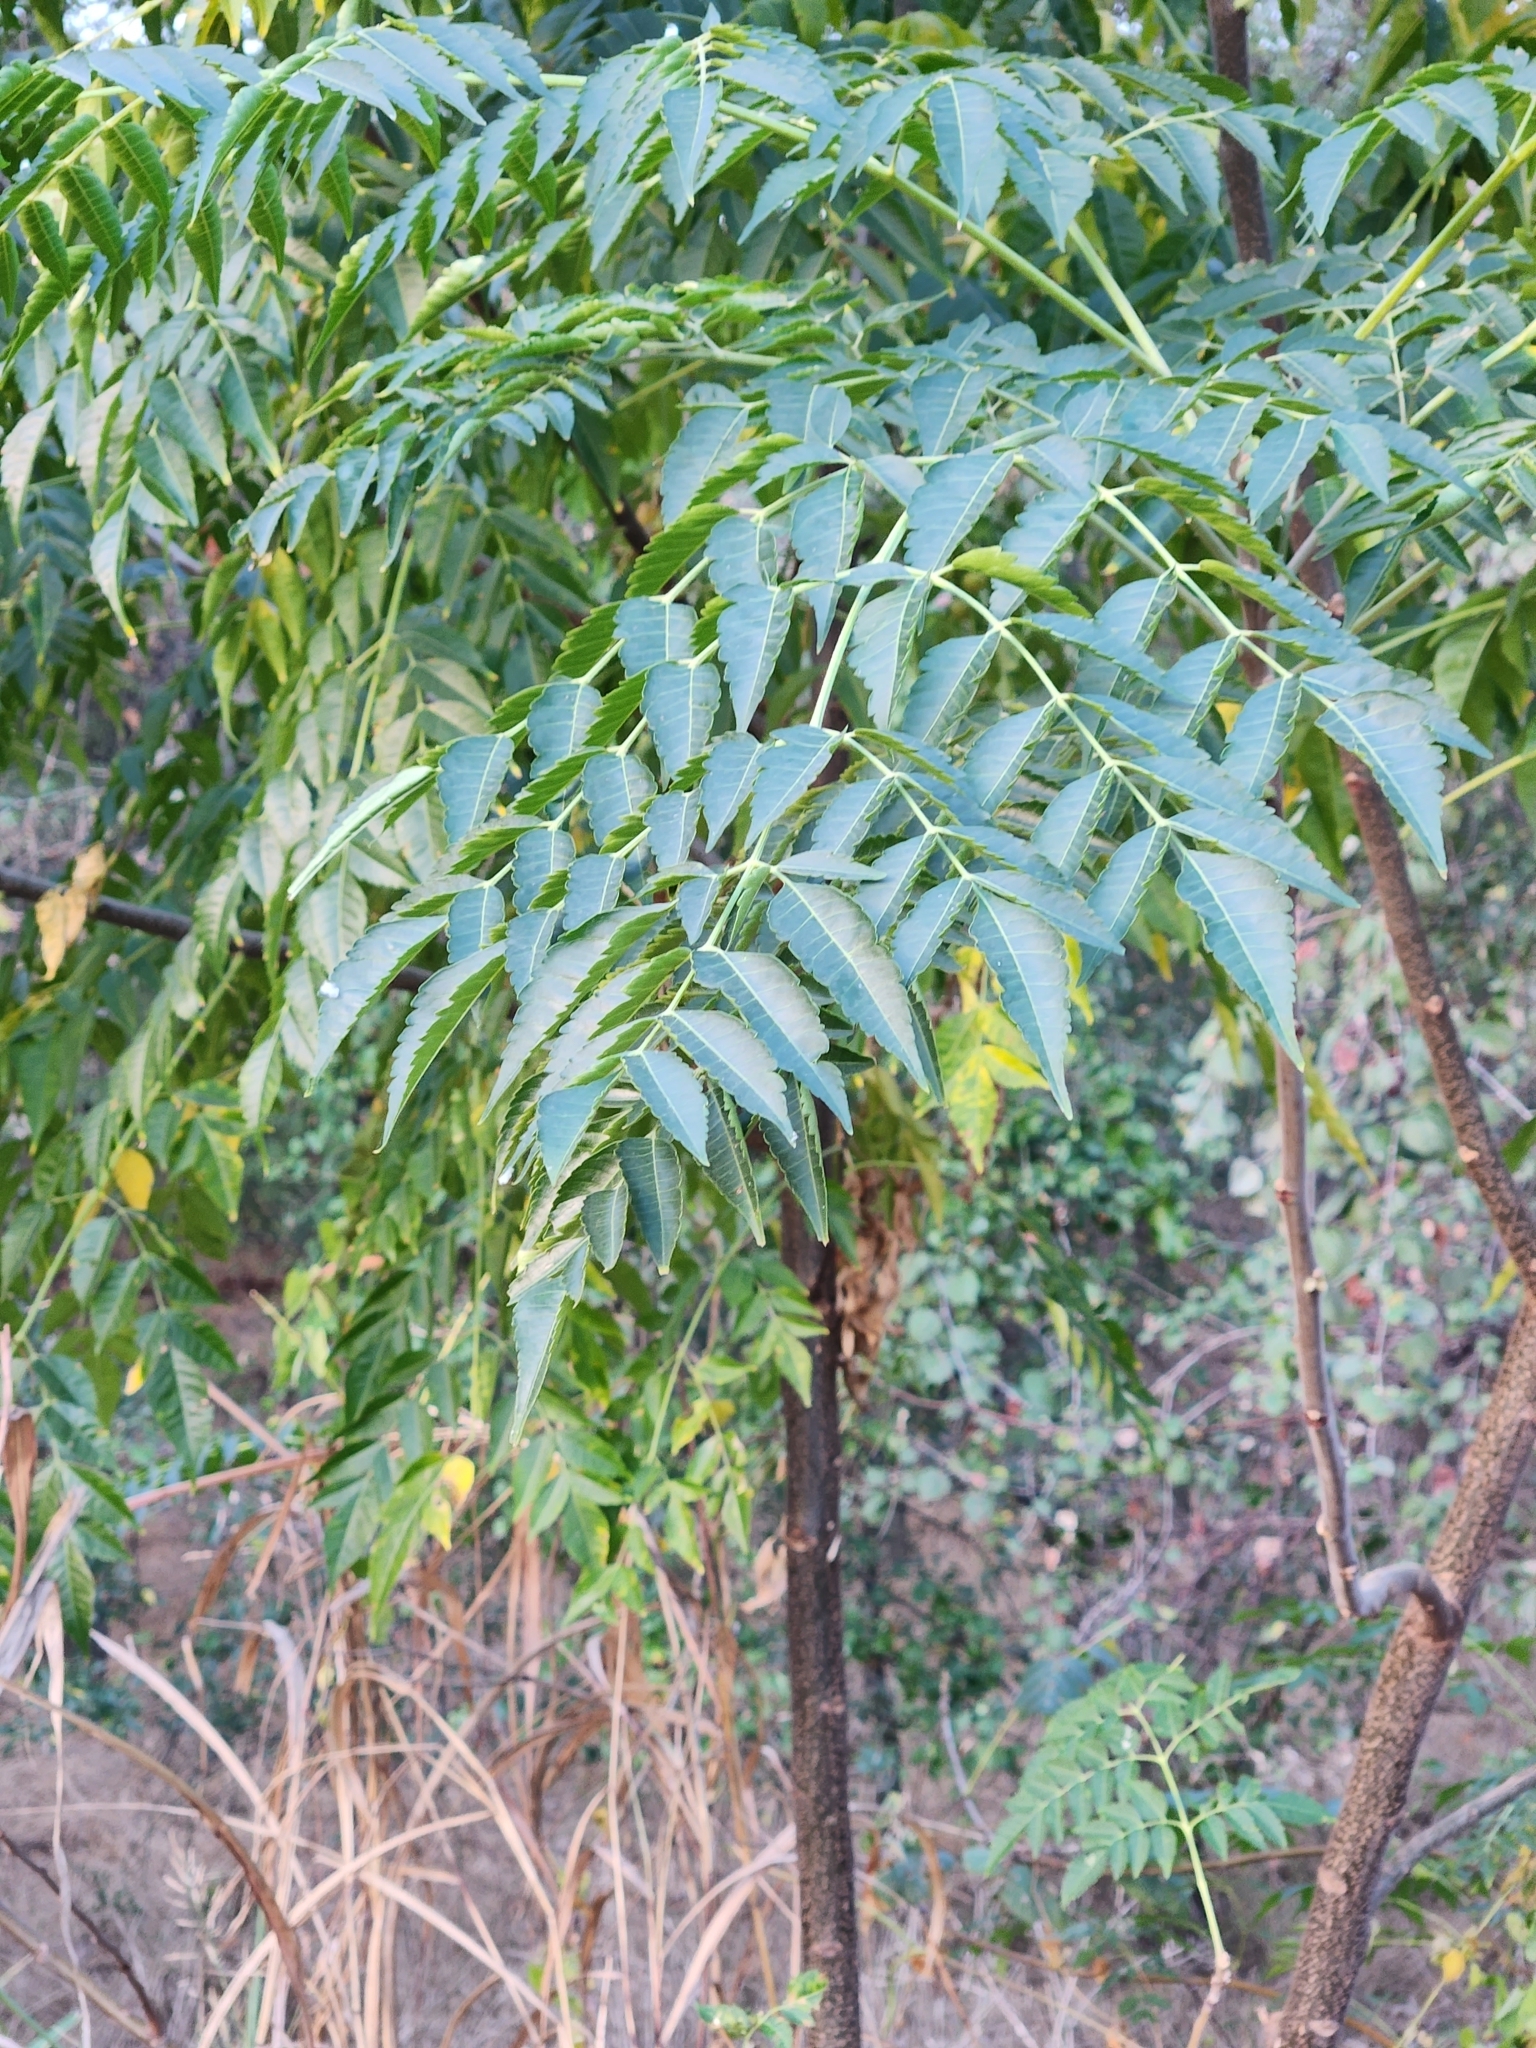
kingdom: Plantae
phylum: Tracheophyta
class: Magnoliopsida
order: Sapindales
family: Meliaceae
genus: Melia
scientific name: Melia azedarach
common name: Chinaberrytree
